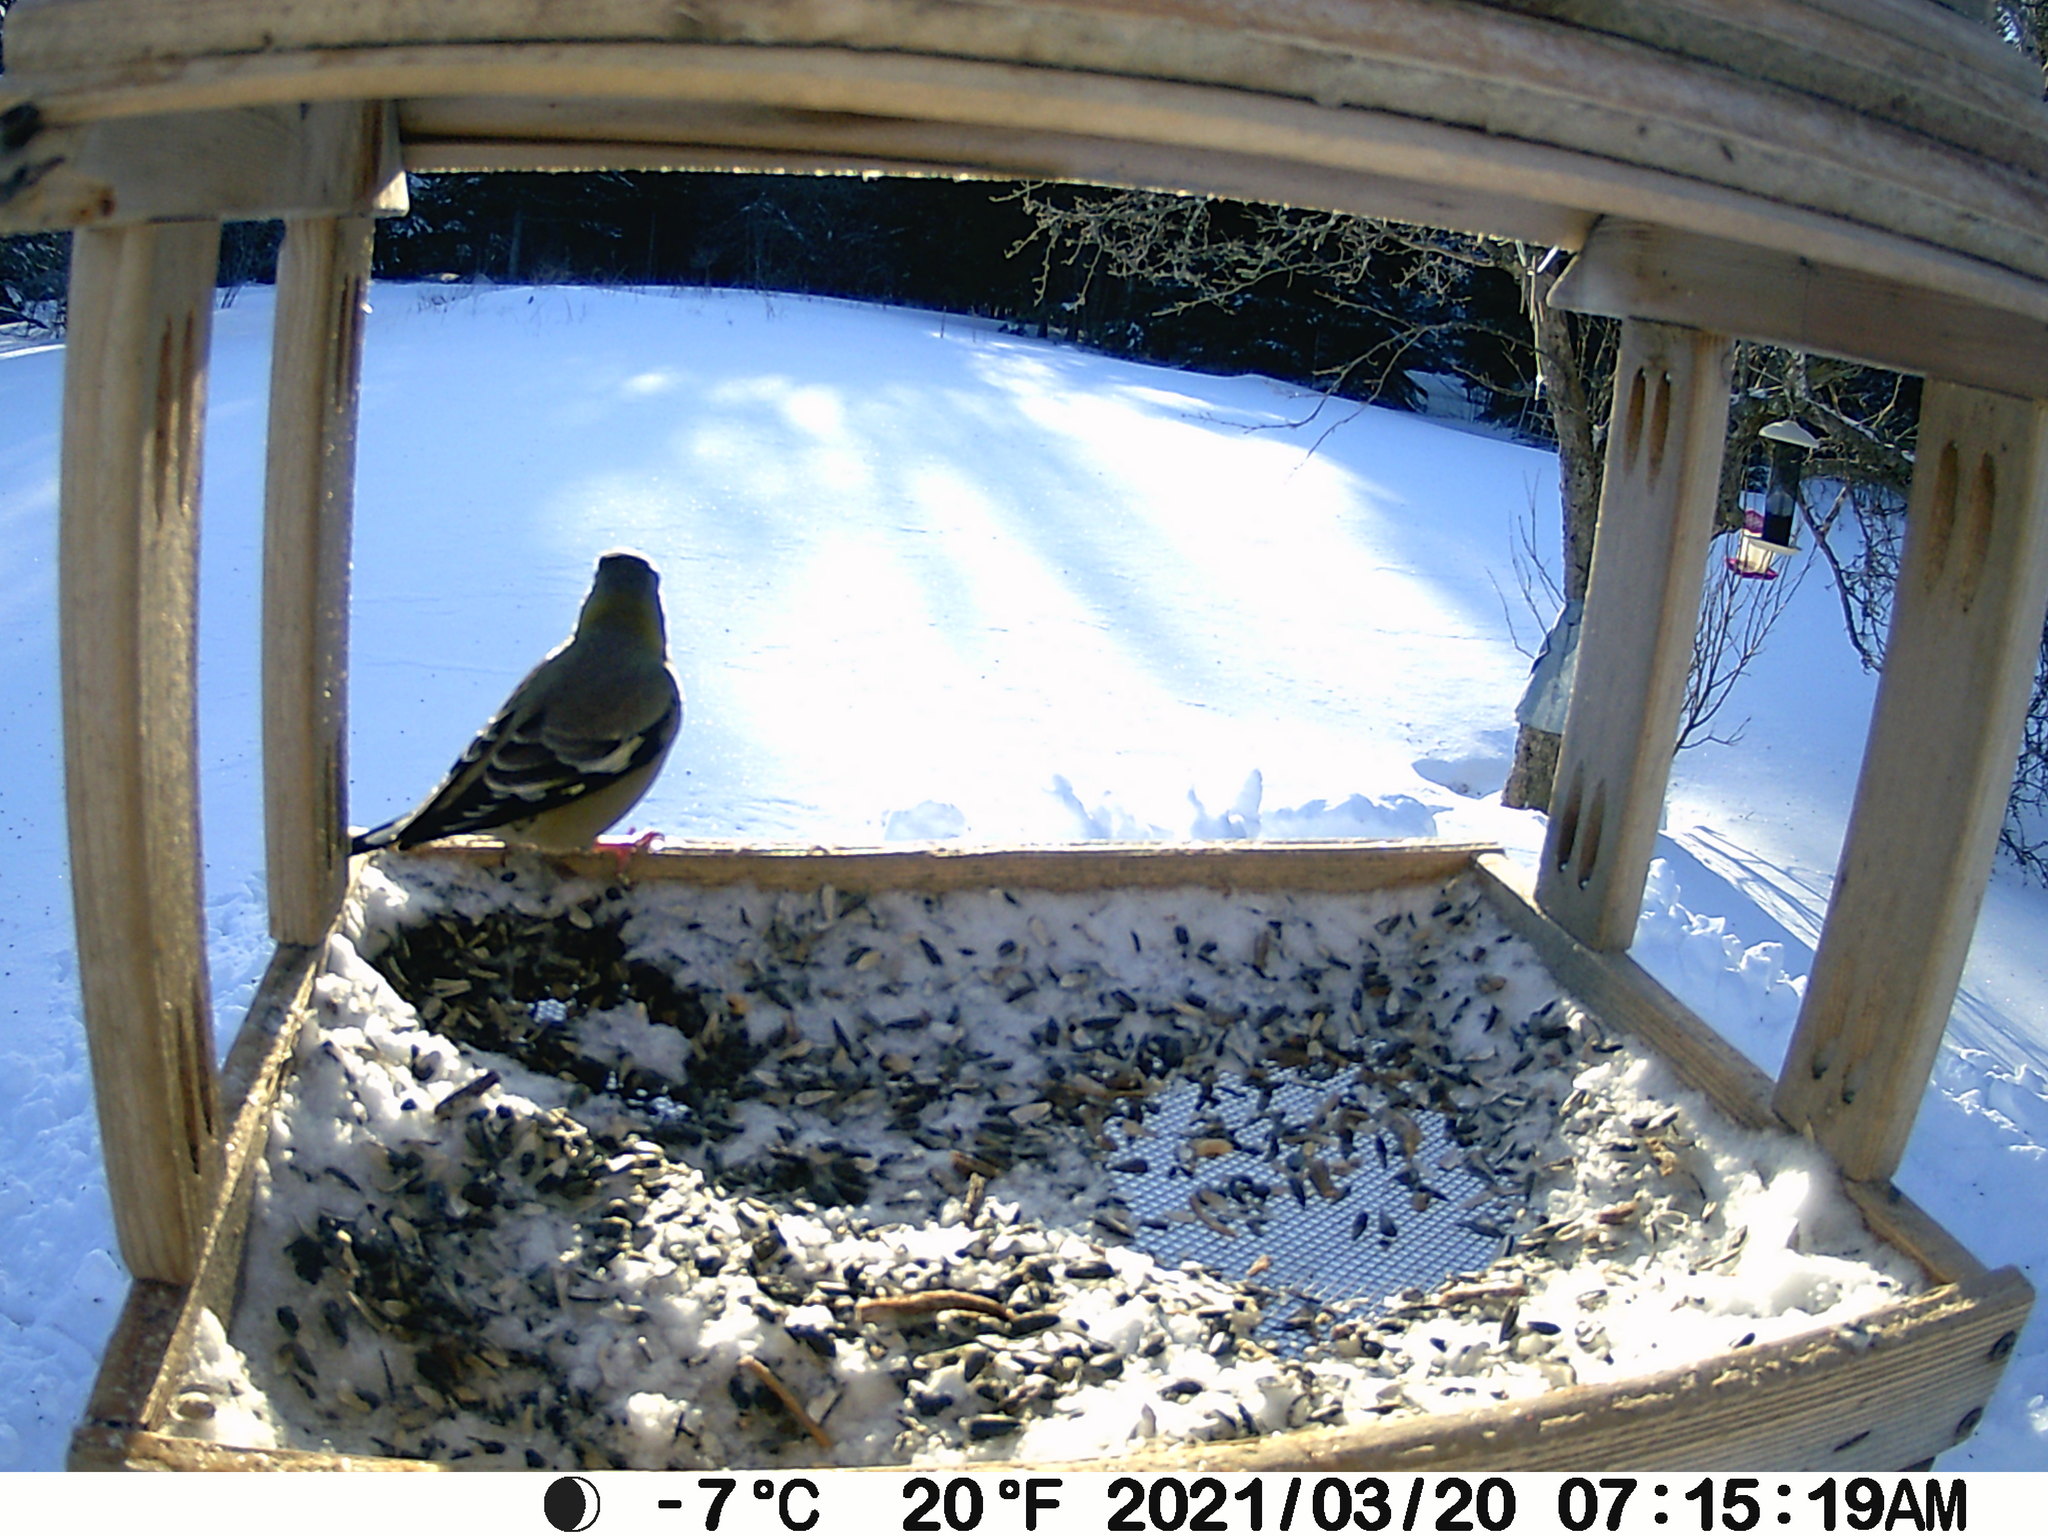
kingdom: Animalia
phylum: Chordata
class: Aves
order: Passeriformes
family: Fringillidae
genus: Hesperiphona
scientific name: Hesperiphona vespertina
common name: Evening grosbeak
